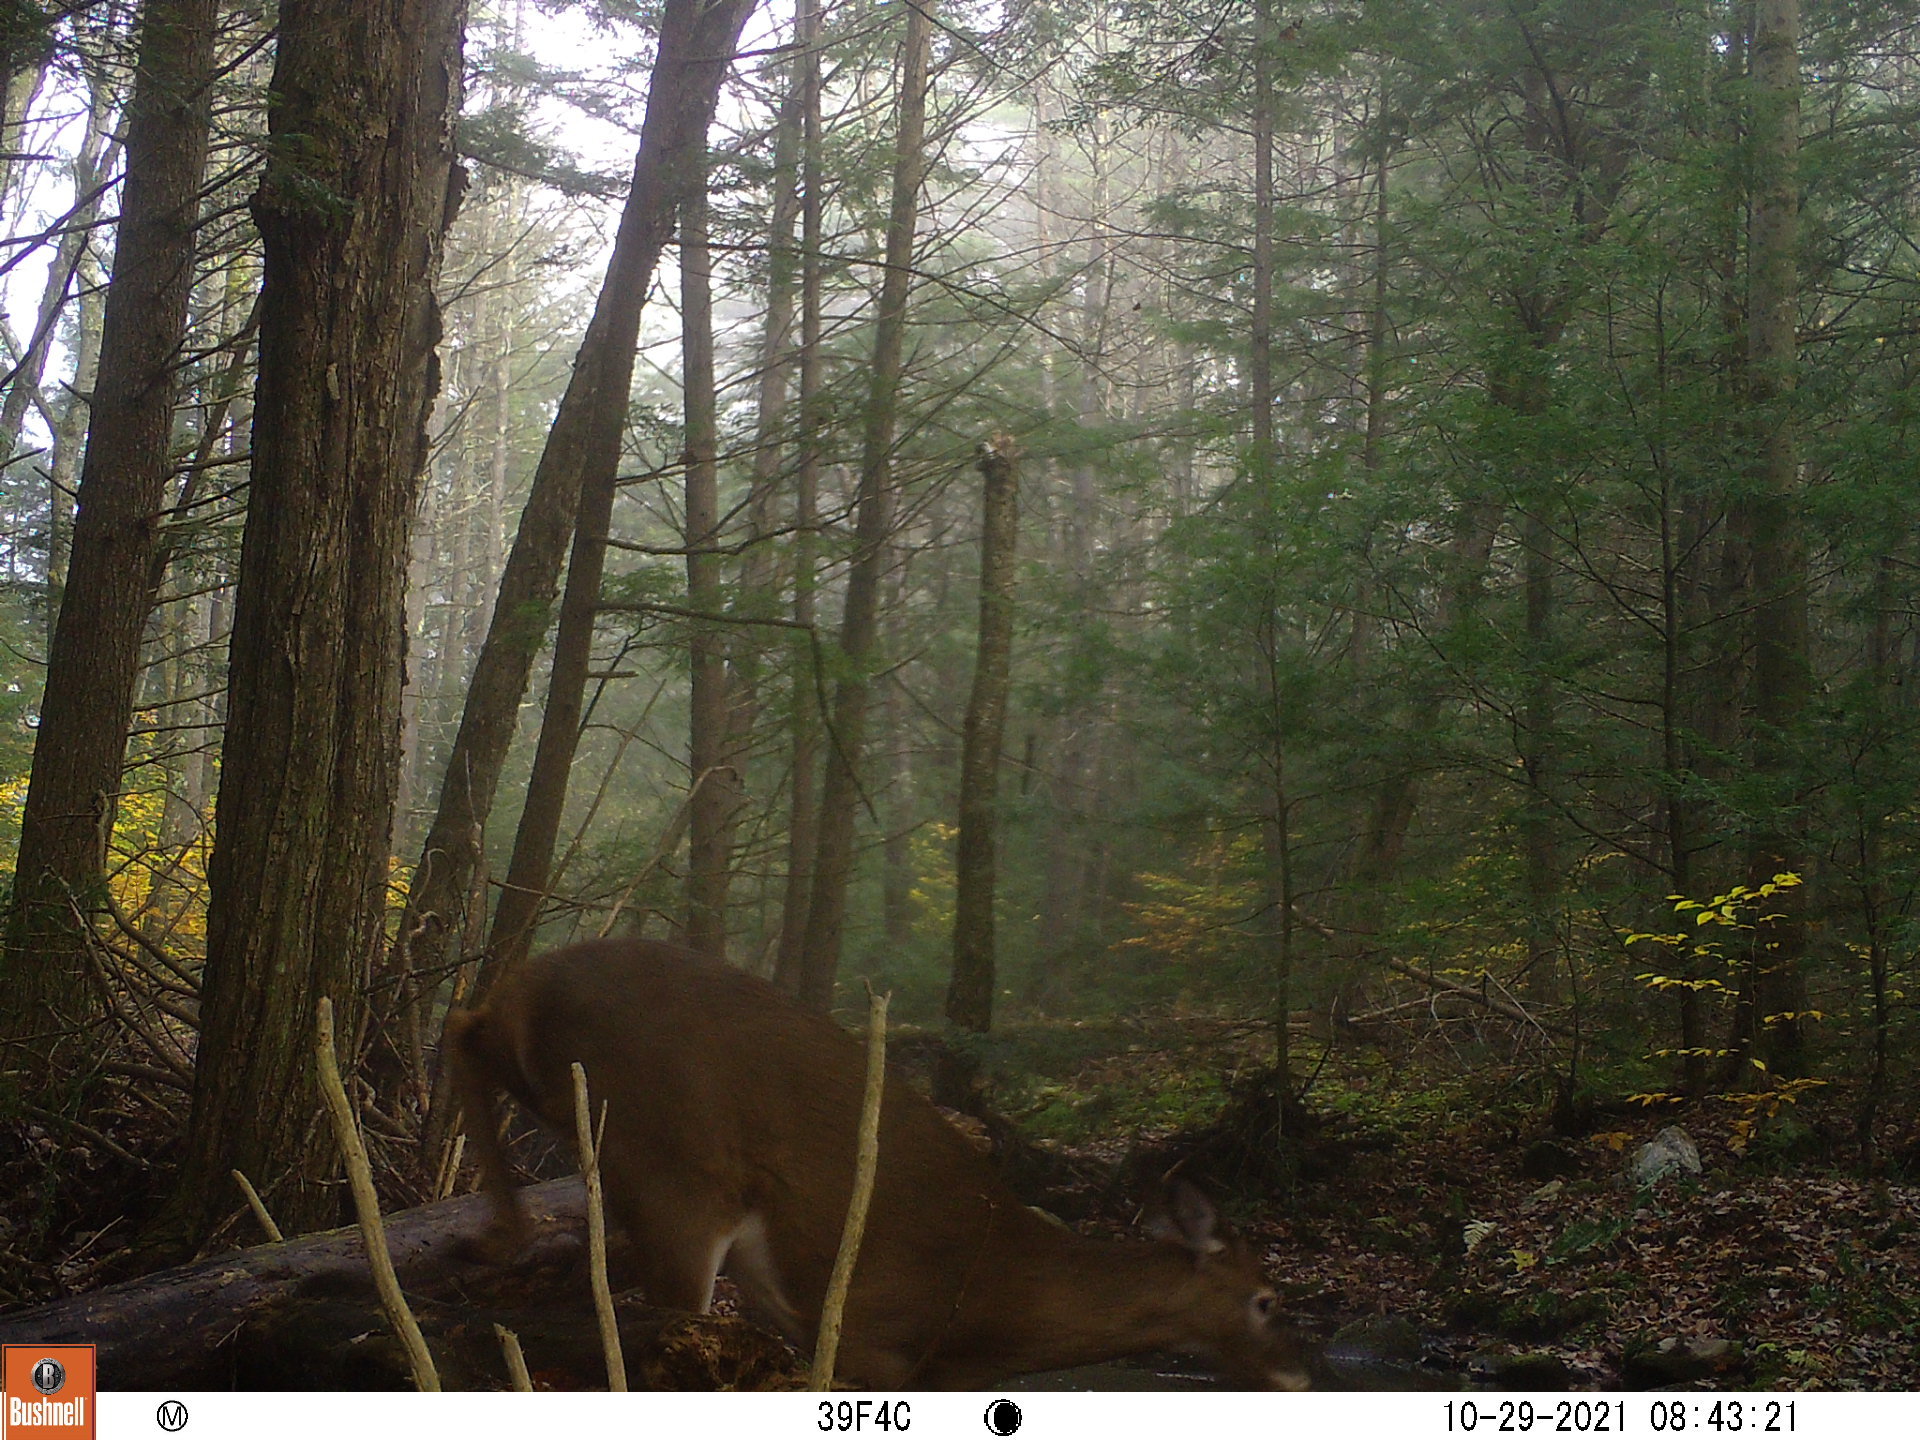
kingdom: Animalia
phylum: Chordata
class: Mammalia
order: Artiodactyla
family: Cervidae
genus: Odocoileus
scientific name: Odocoileus virginianus
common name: White-tailed deer
